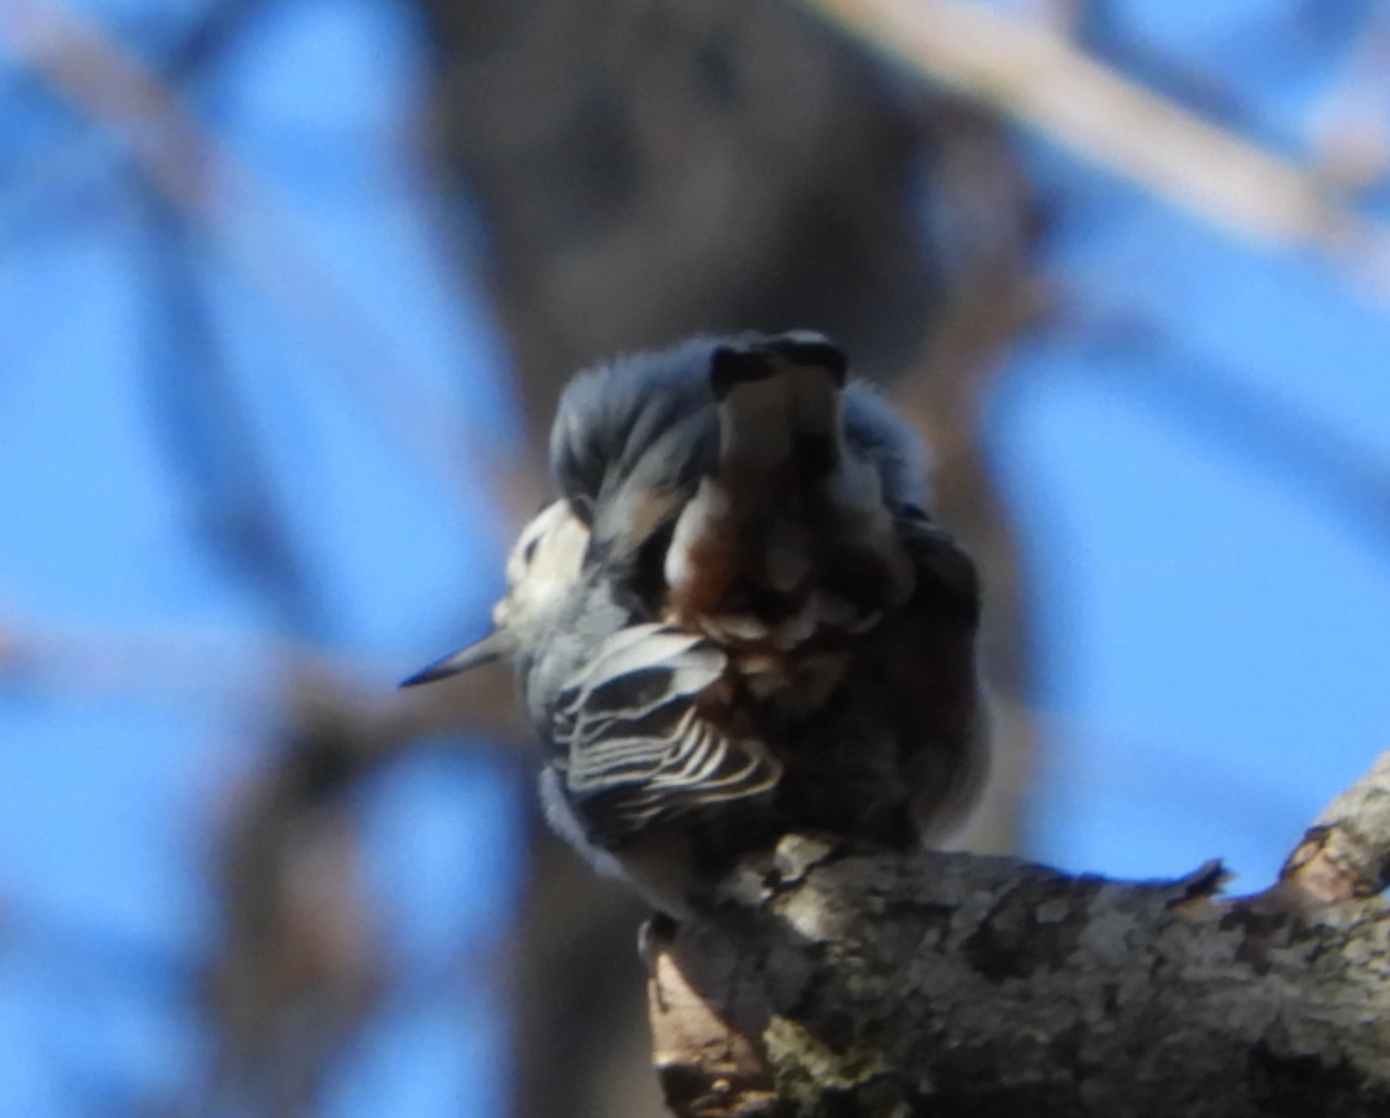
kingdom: Animalia
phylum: Chordata
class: Aves
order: Passeriformes
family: Sittidae
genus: Sitta
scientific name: Sitta carolinensis
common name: White-breasted nuthatch
